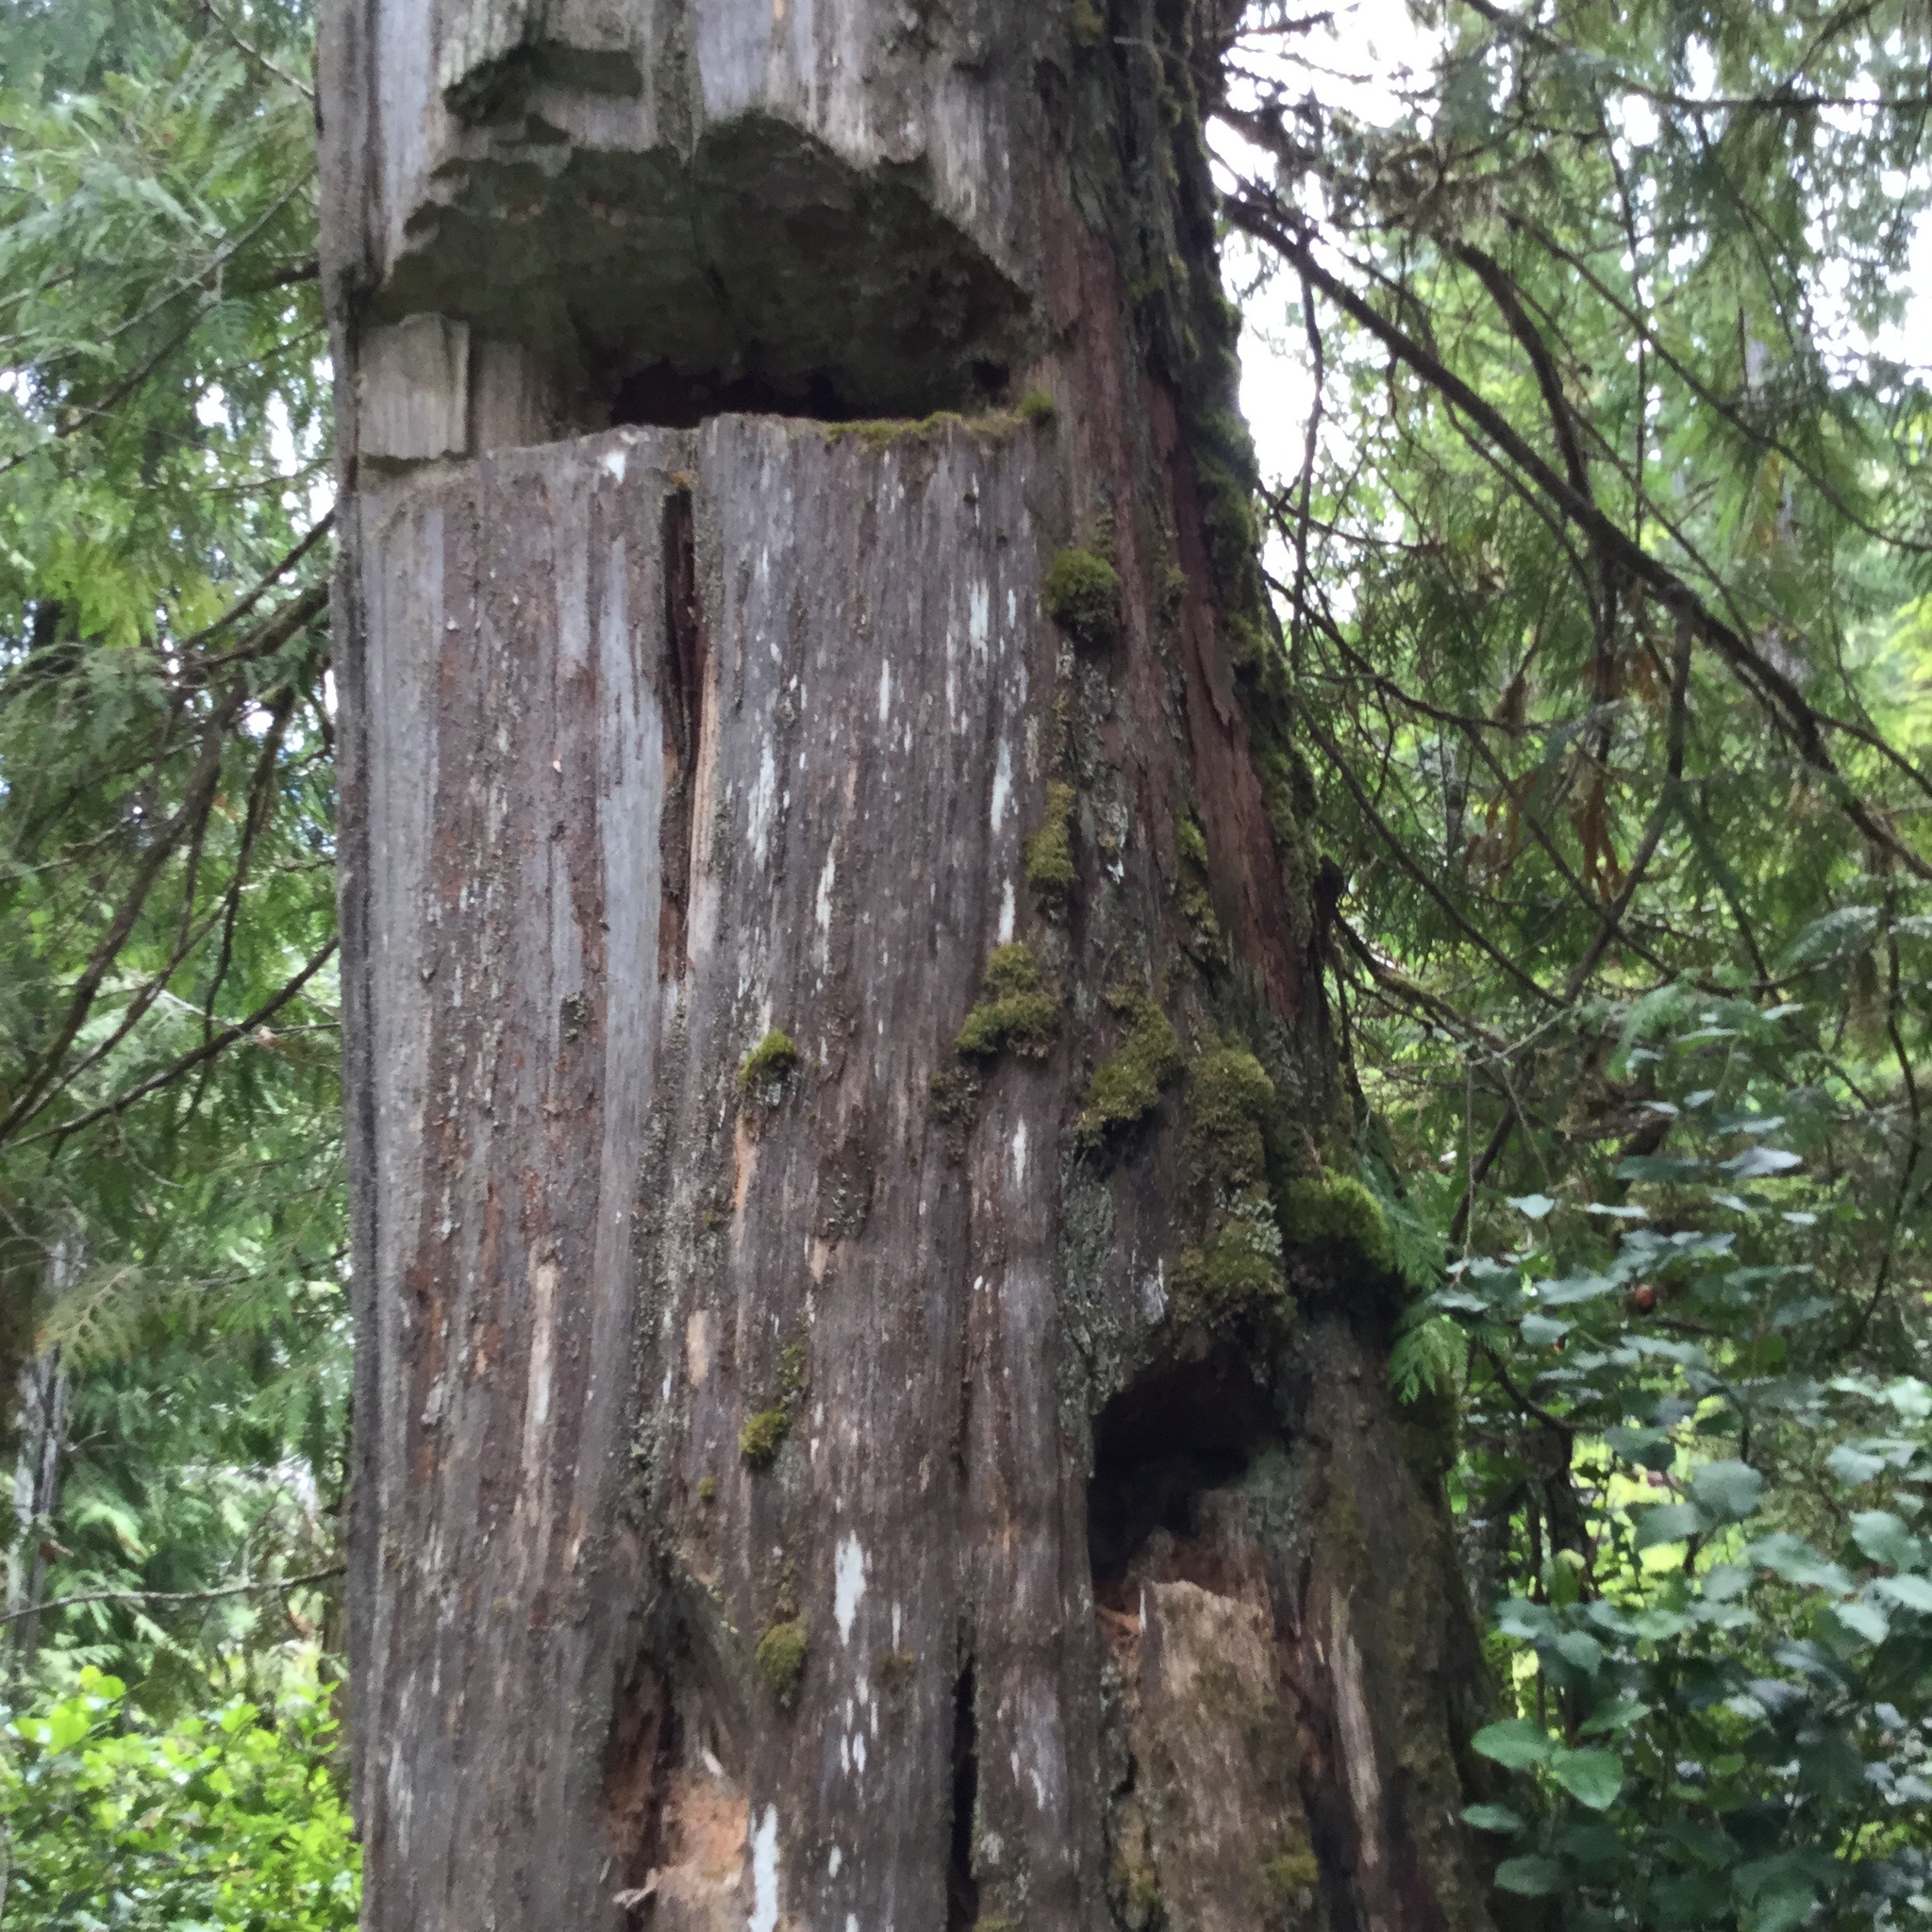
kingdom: Plantae
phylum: Tracheophyta
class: Pinopsida
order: Pinales
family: Cupressaceae
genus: Thuja
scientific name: Thuja plicata
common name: Western red-cedar
